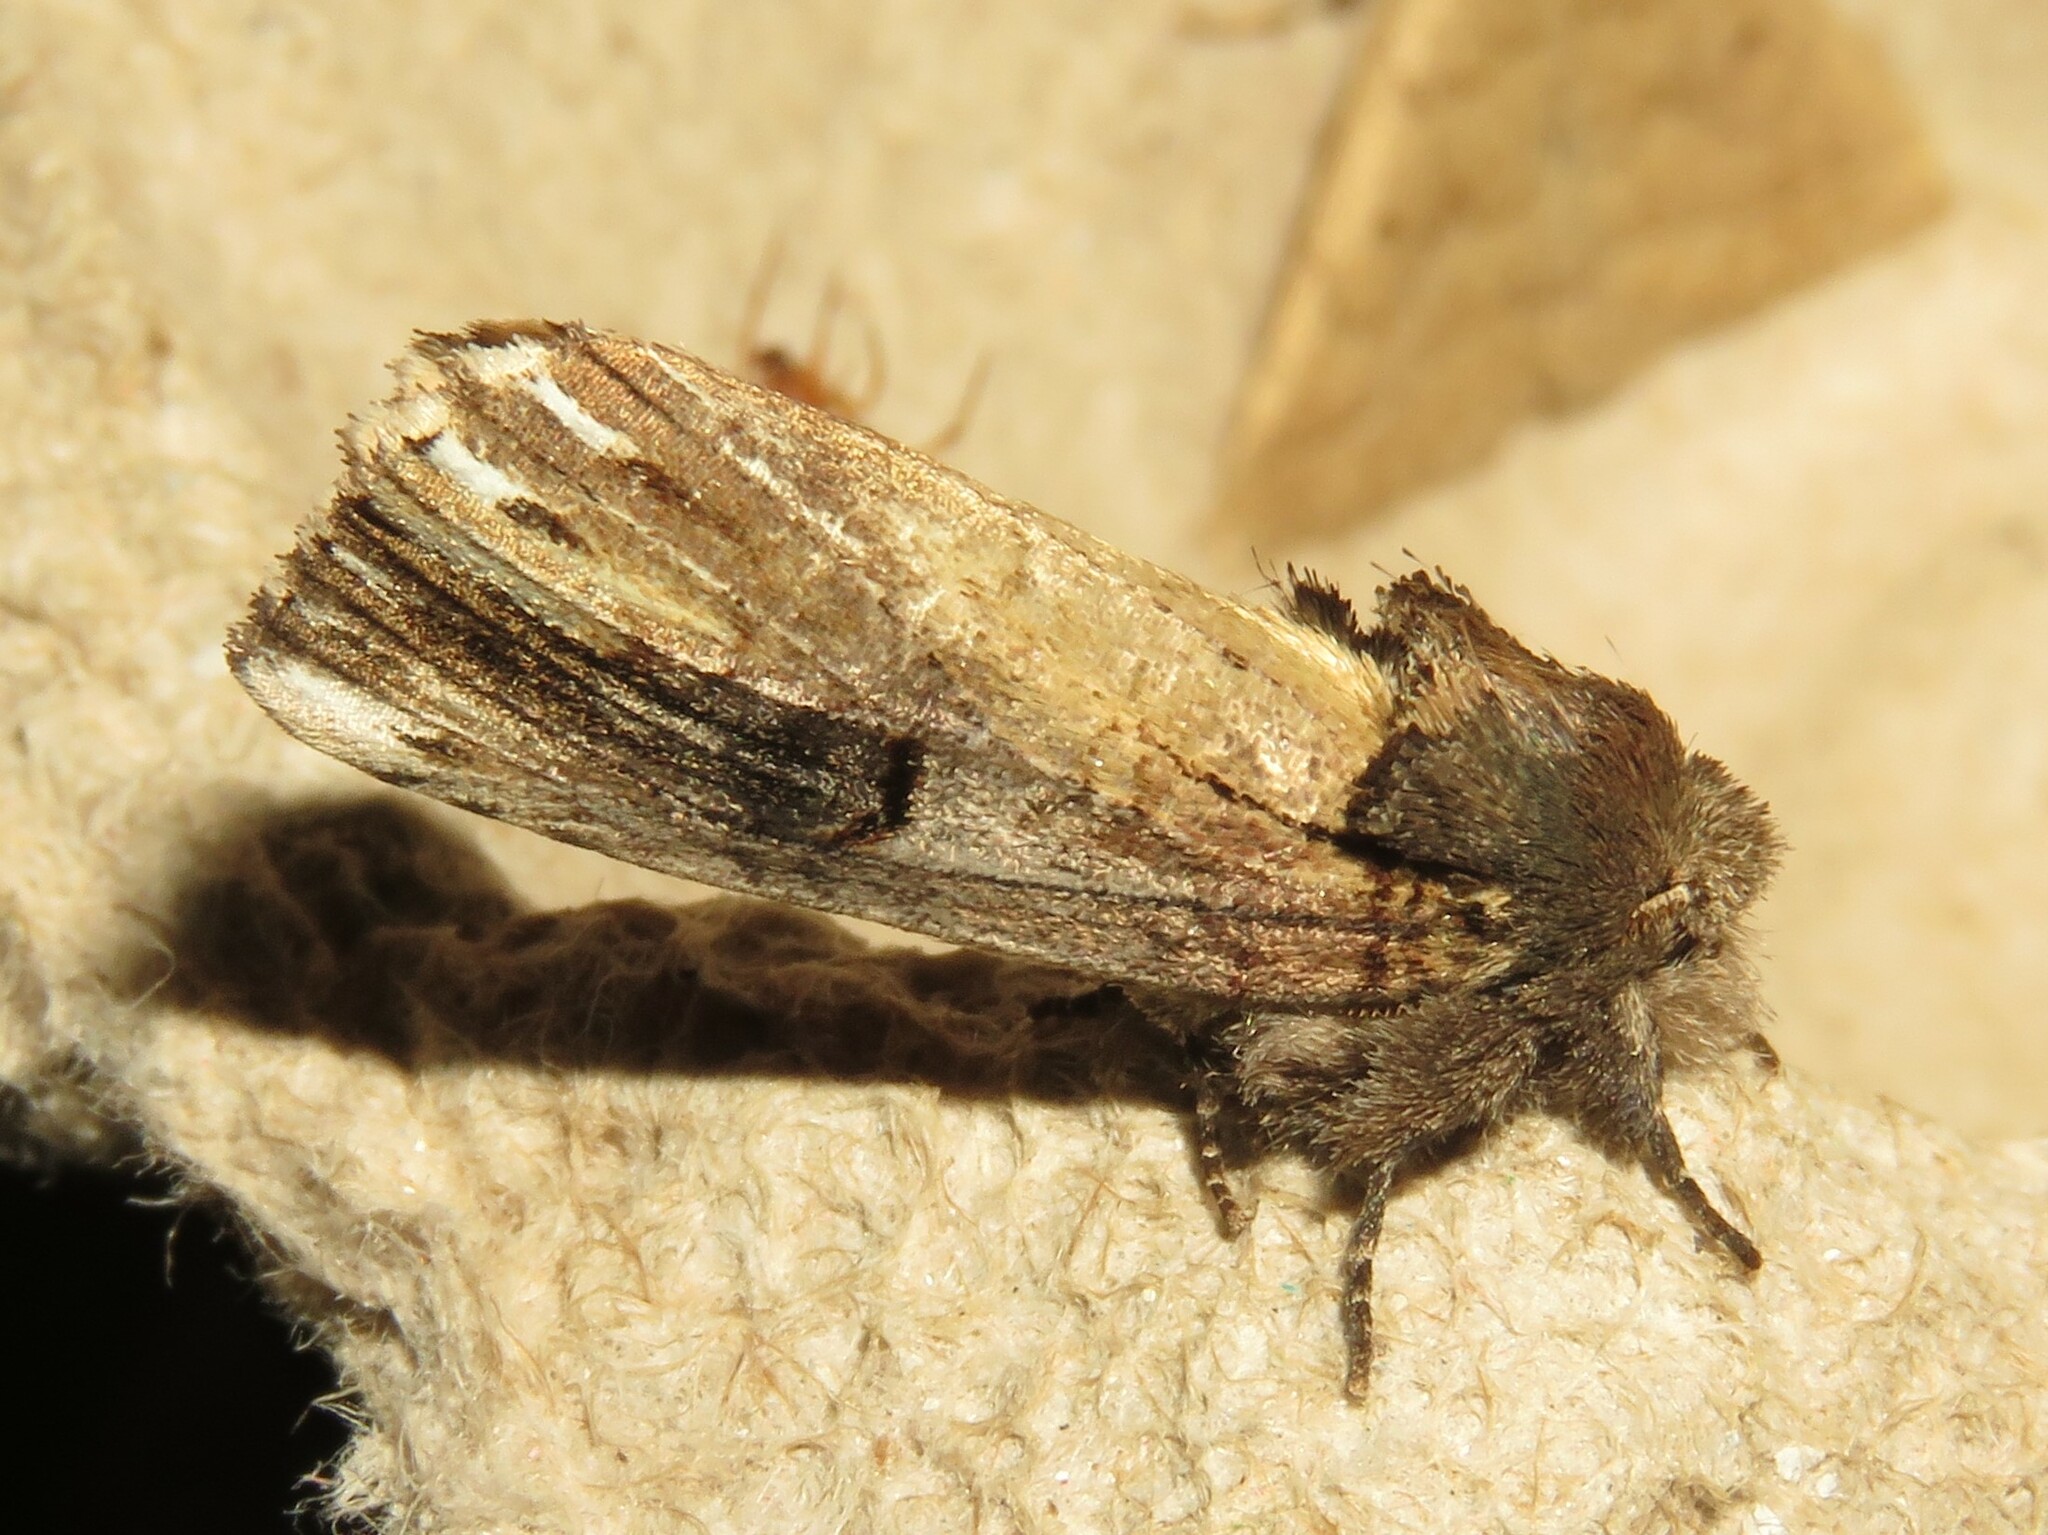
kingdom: Animalia
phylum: Arthropoda
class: Insecta
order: Lepidoptera
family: Notodontidae
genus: Schizura
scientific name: Schizura badia
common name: Chestnut schizura
